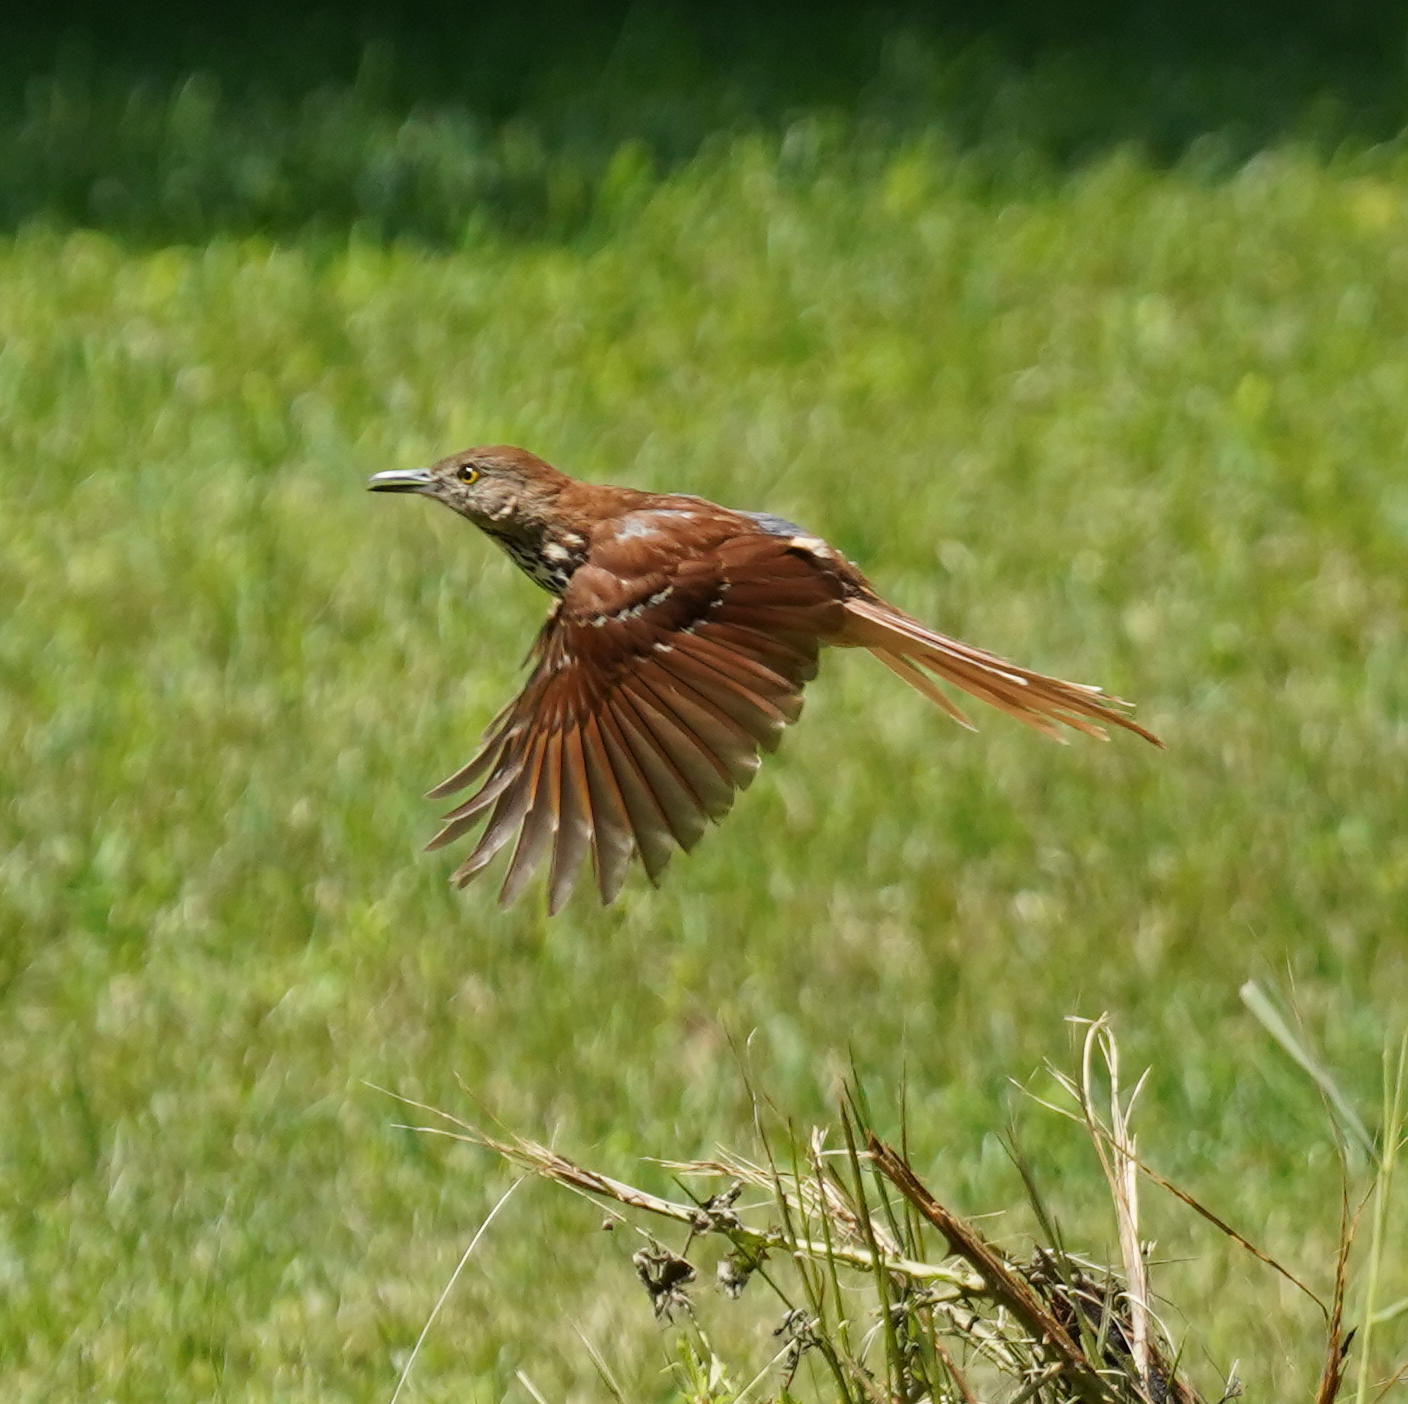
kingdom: Animalia
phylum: Chordata
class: Aves
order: Passeriformes
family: Mimidae
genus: Toxostoma
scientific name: Toxostoma rufum
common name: Brown thrasher
